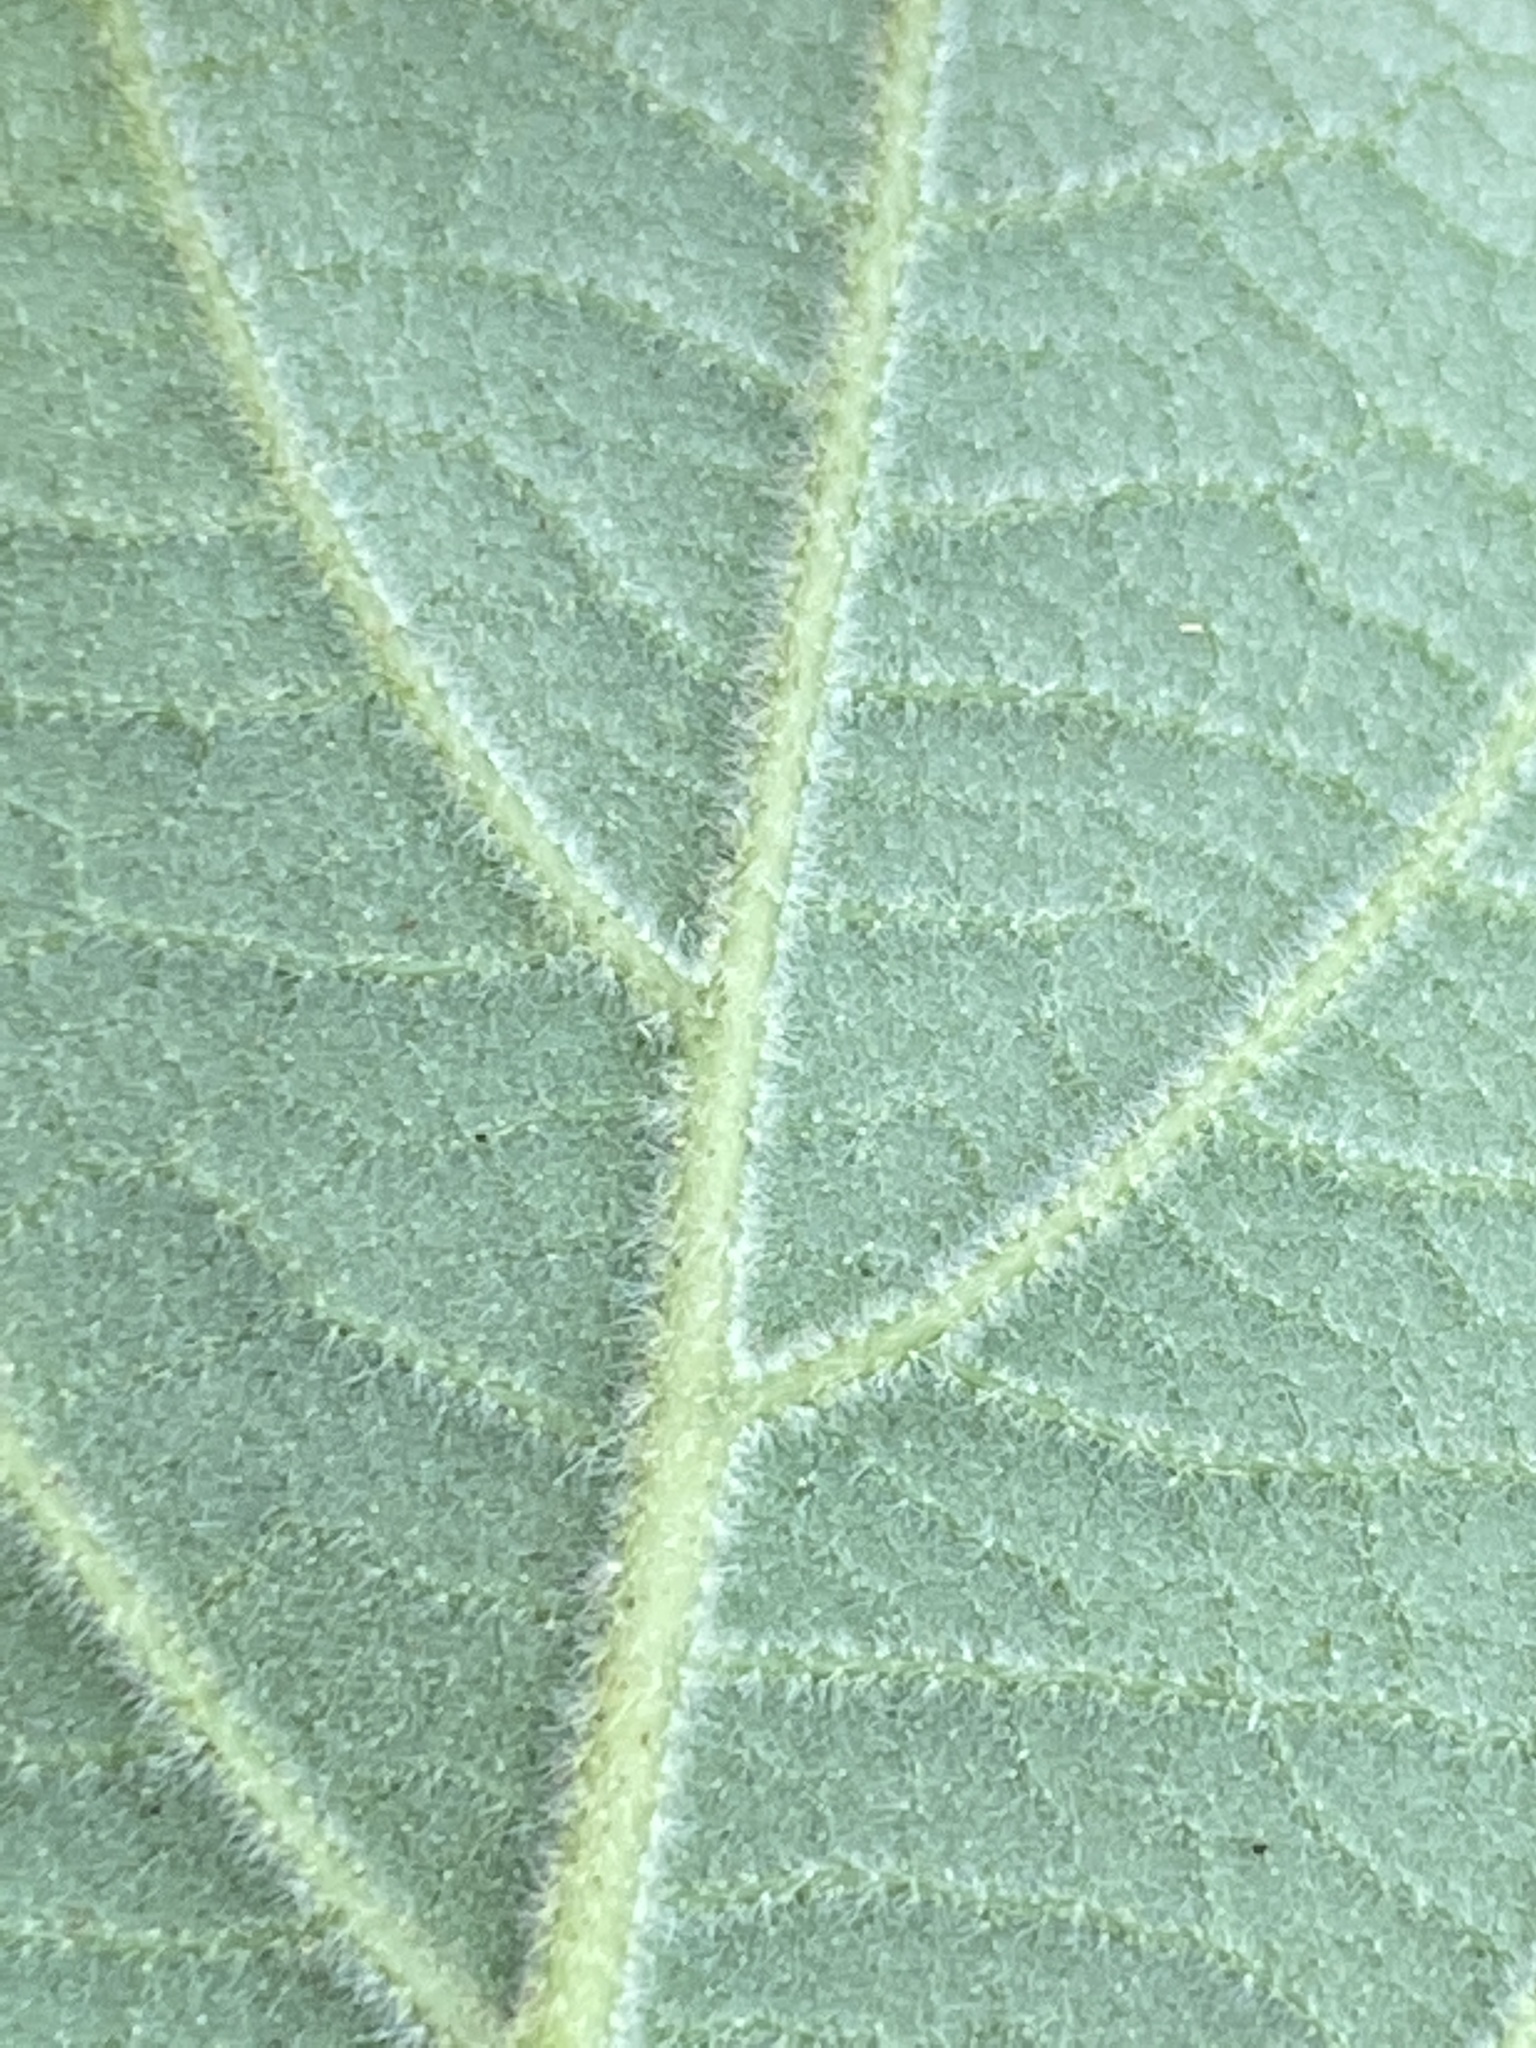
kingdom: Plantae
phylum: Tracheophyta
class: Magnoliopsida
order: Ericales
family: Styracaceae
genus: Styrax
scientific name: Styrax americanus
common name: American snowbell
